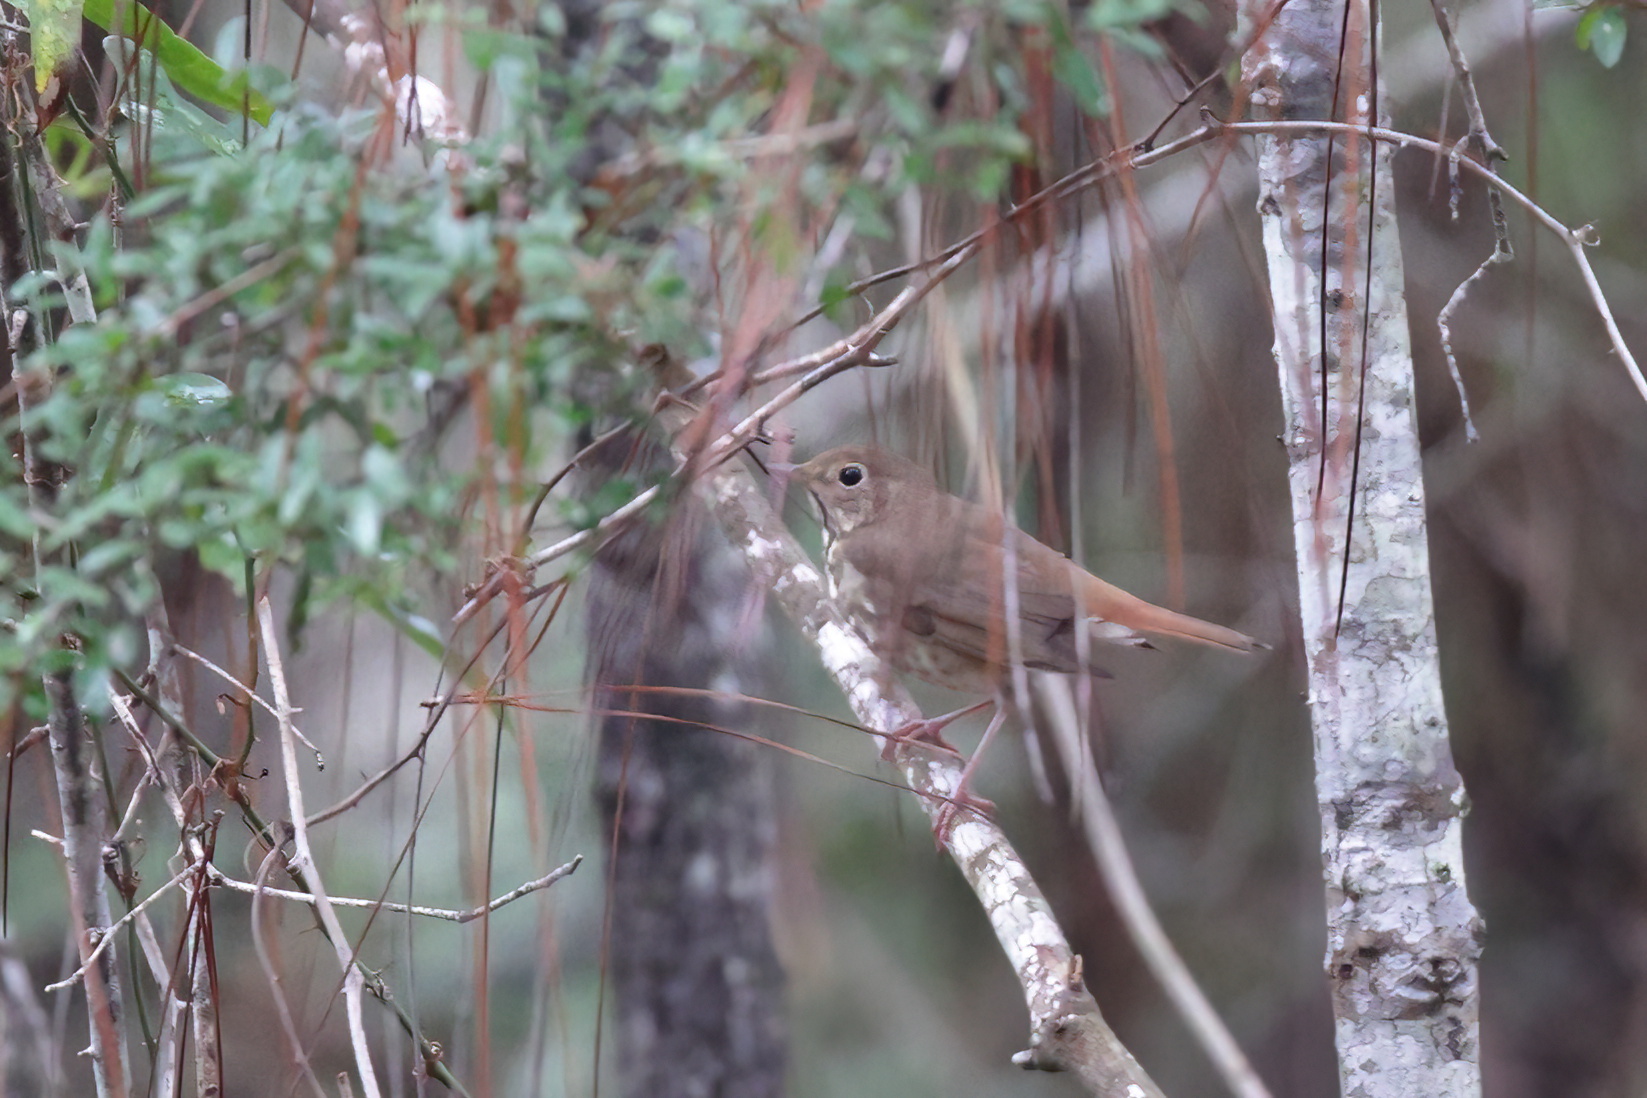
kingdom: Animalia
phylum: Chordata
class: Aves
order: Passeriformes
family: Turdidae
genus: Catharus
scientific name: Catharus guttatus
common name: Hermit thrush
